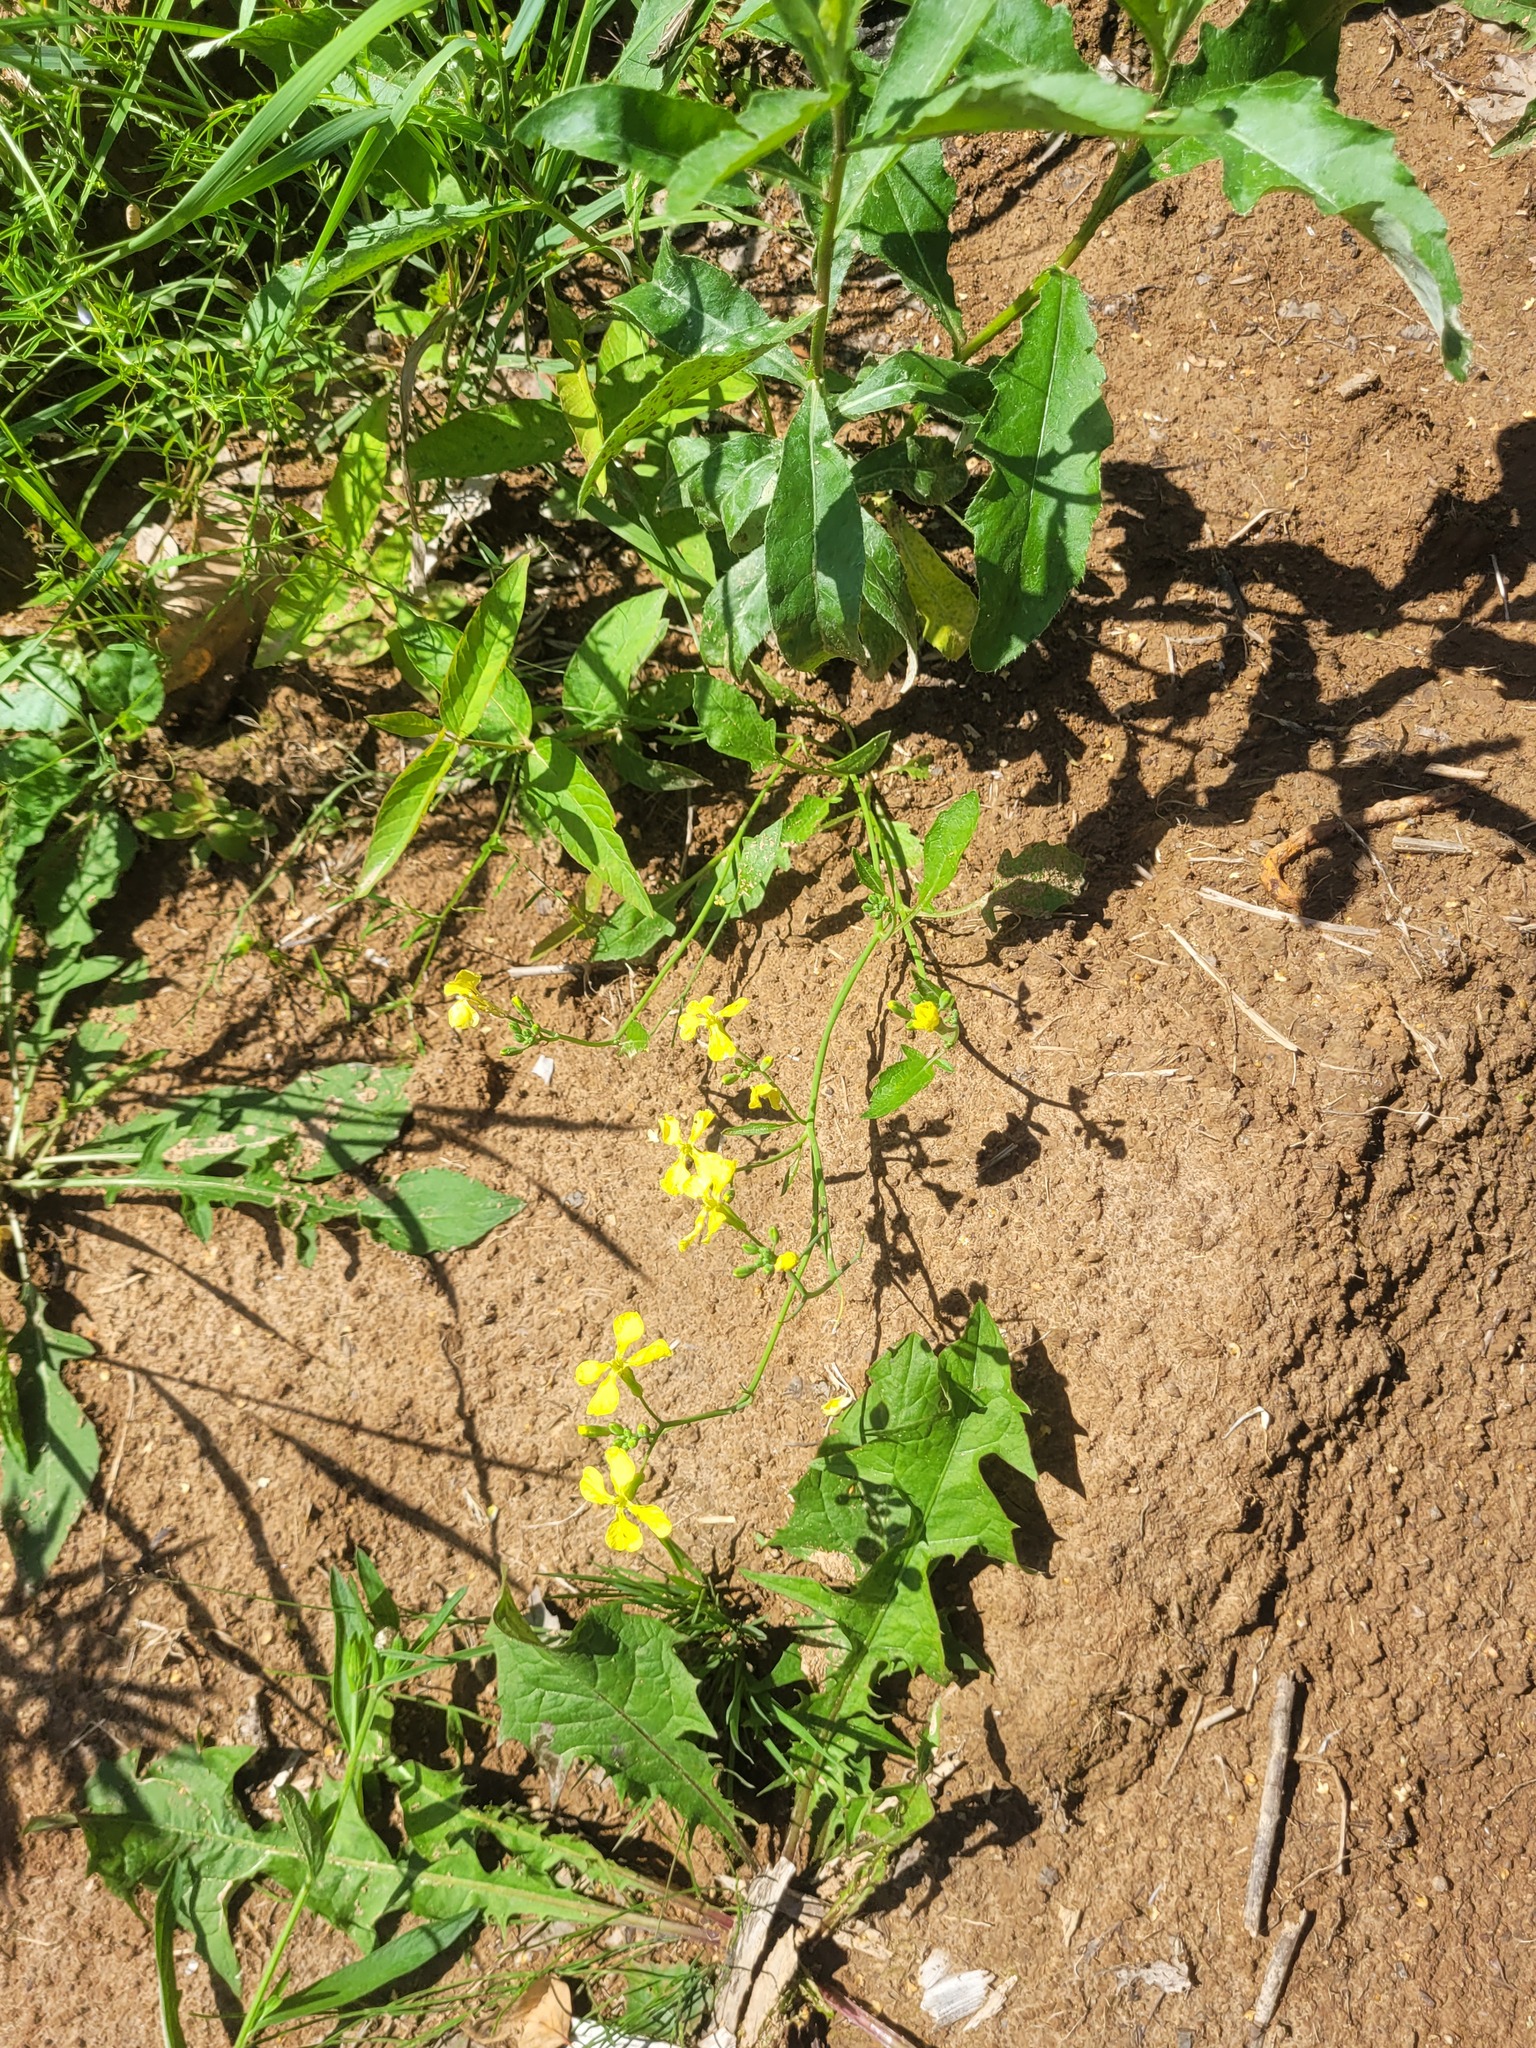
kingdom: Plantae
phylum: Tracheophyta
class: Magnoliopsida
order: Brassicales
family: Brassicaceae
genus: Raphanus
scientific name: Raphanus raphanistrum
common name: Wild radish
